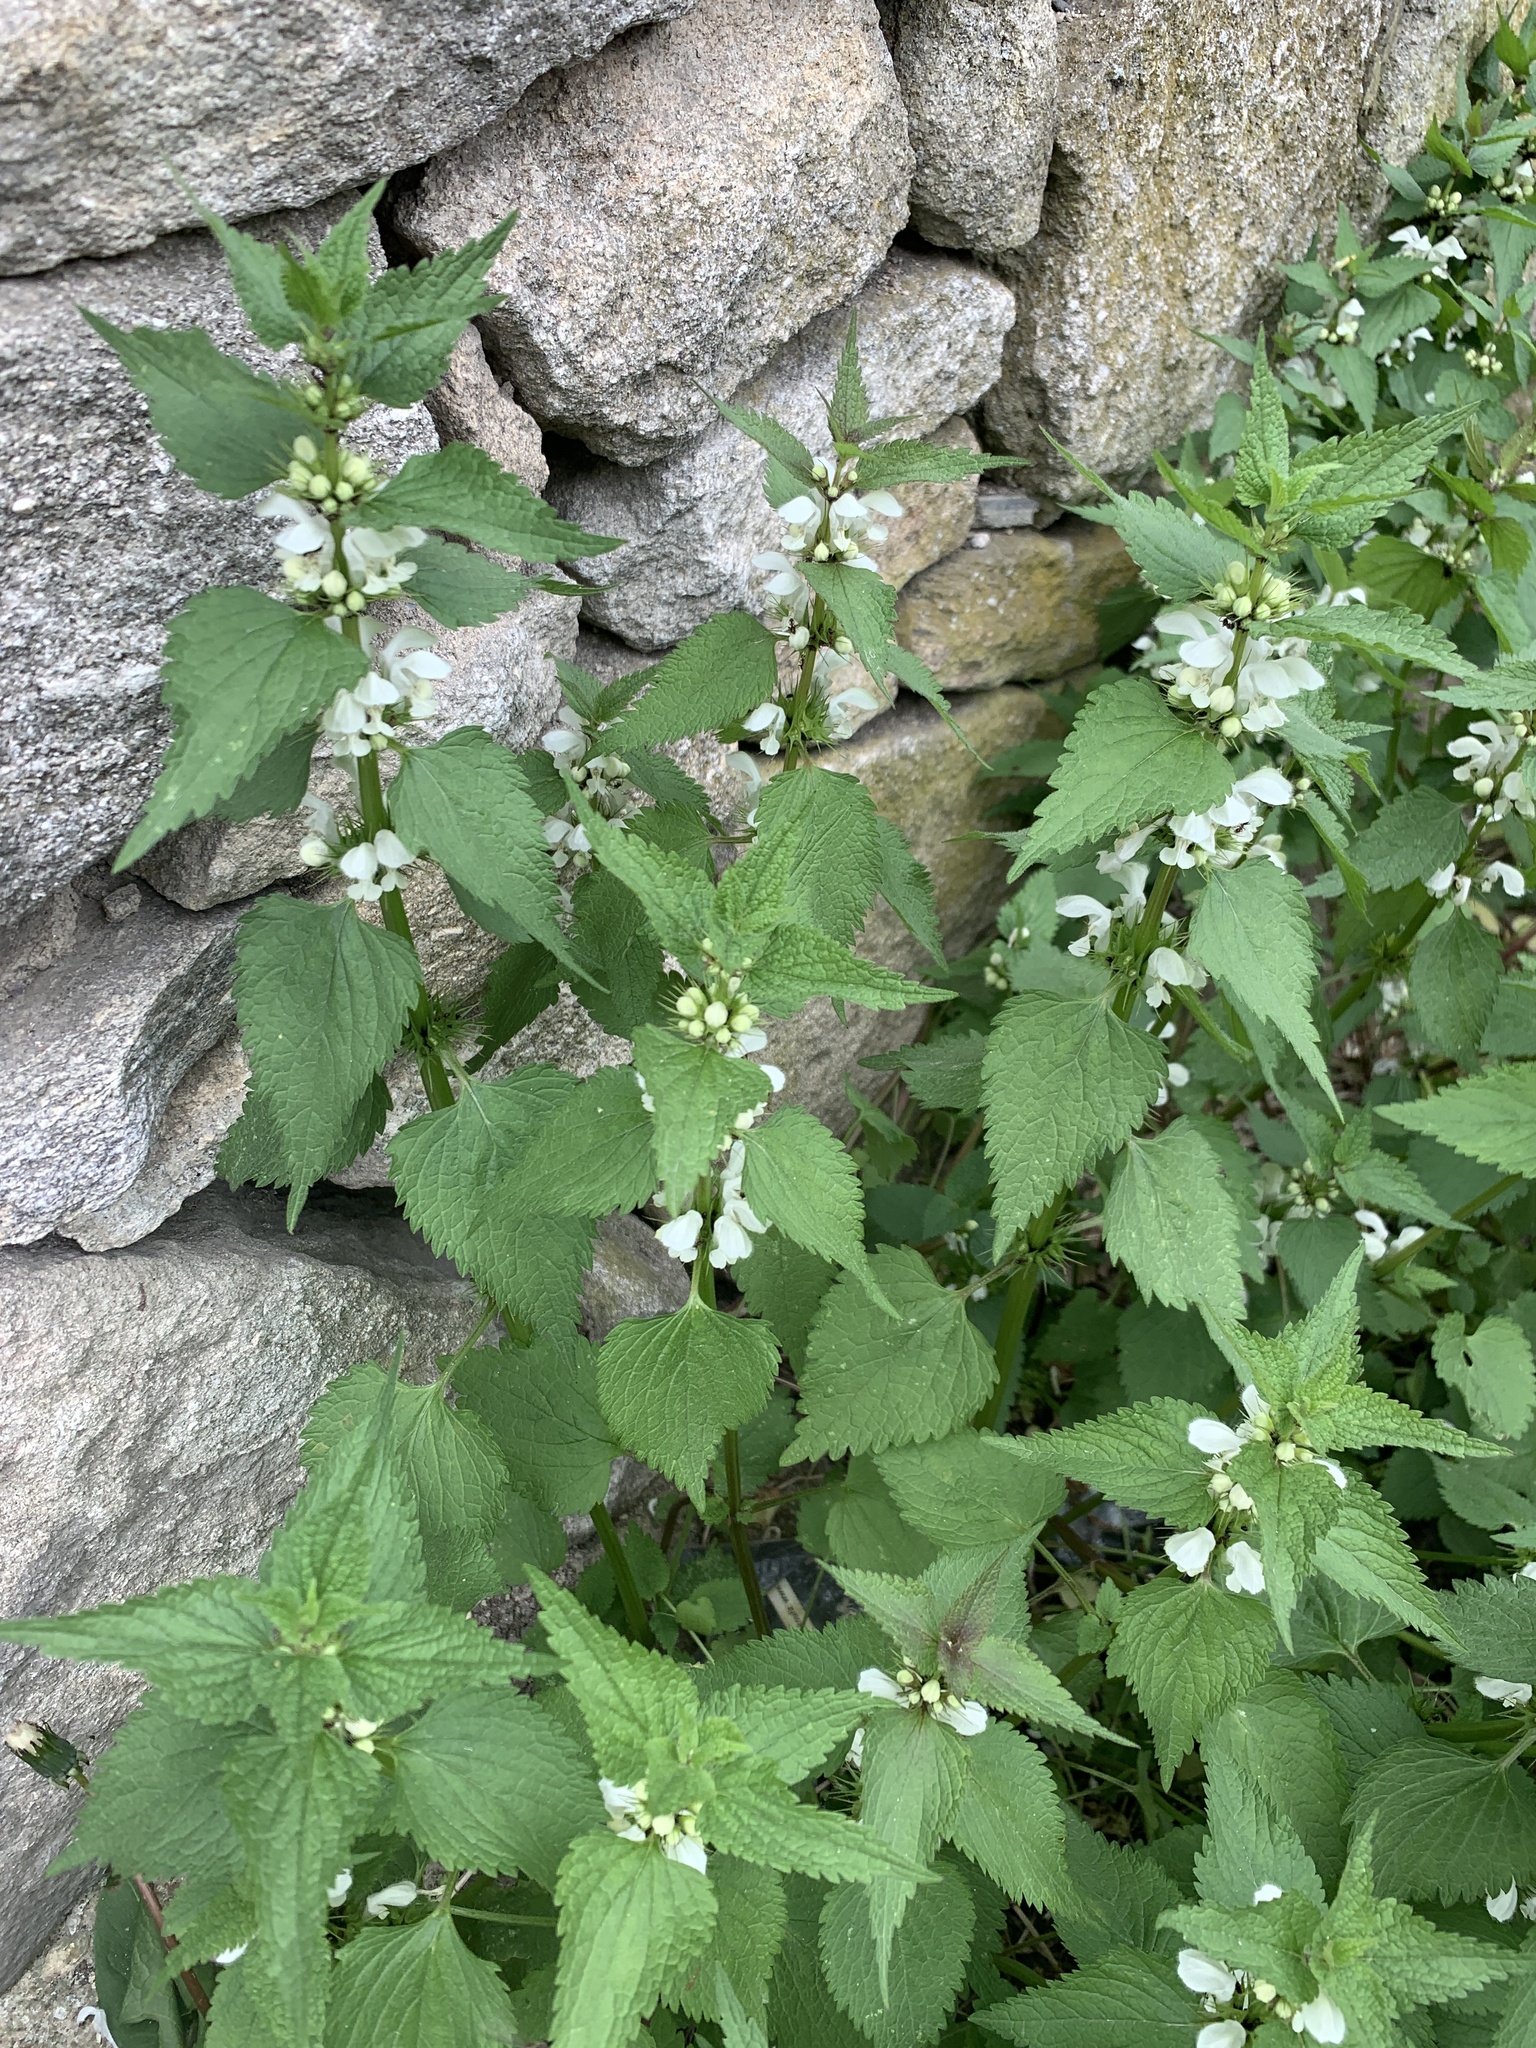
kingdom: Plantae
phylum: Tracheophyta
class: Magnoliopsida
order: Lamiales
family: Lamiaceae
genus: Lamium
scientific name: Lamium album
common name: White dead-nettle
